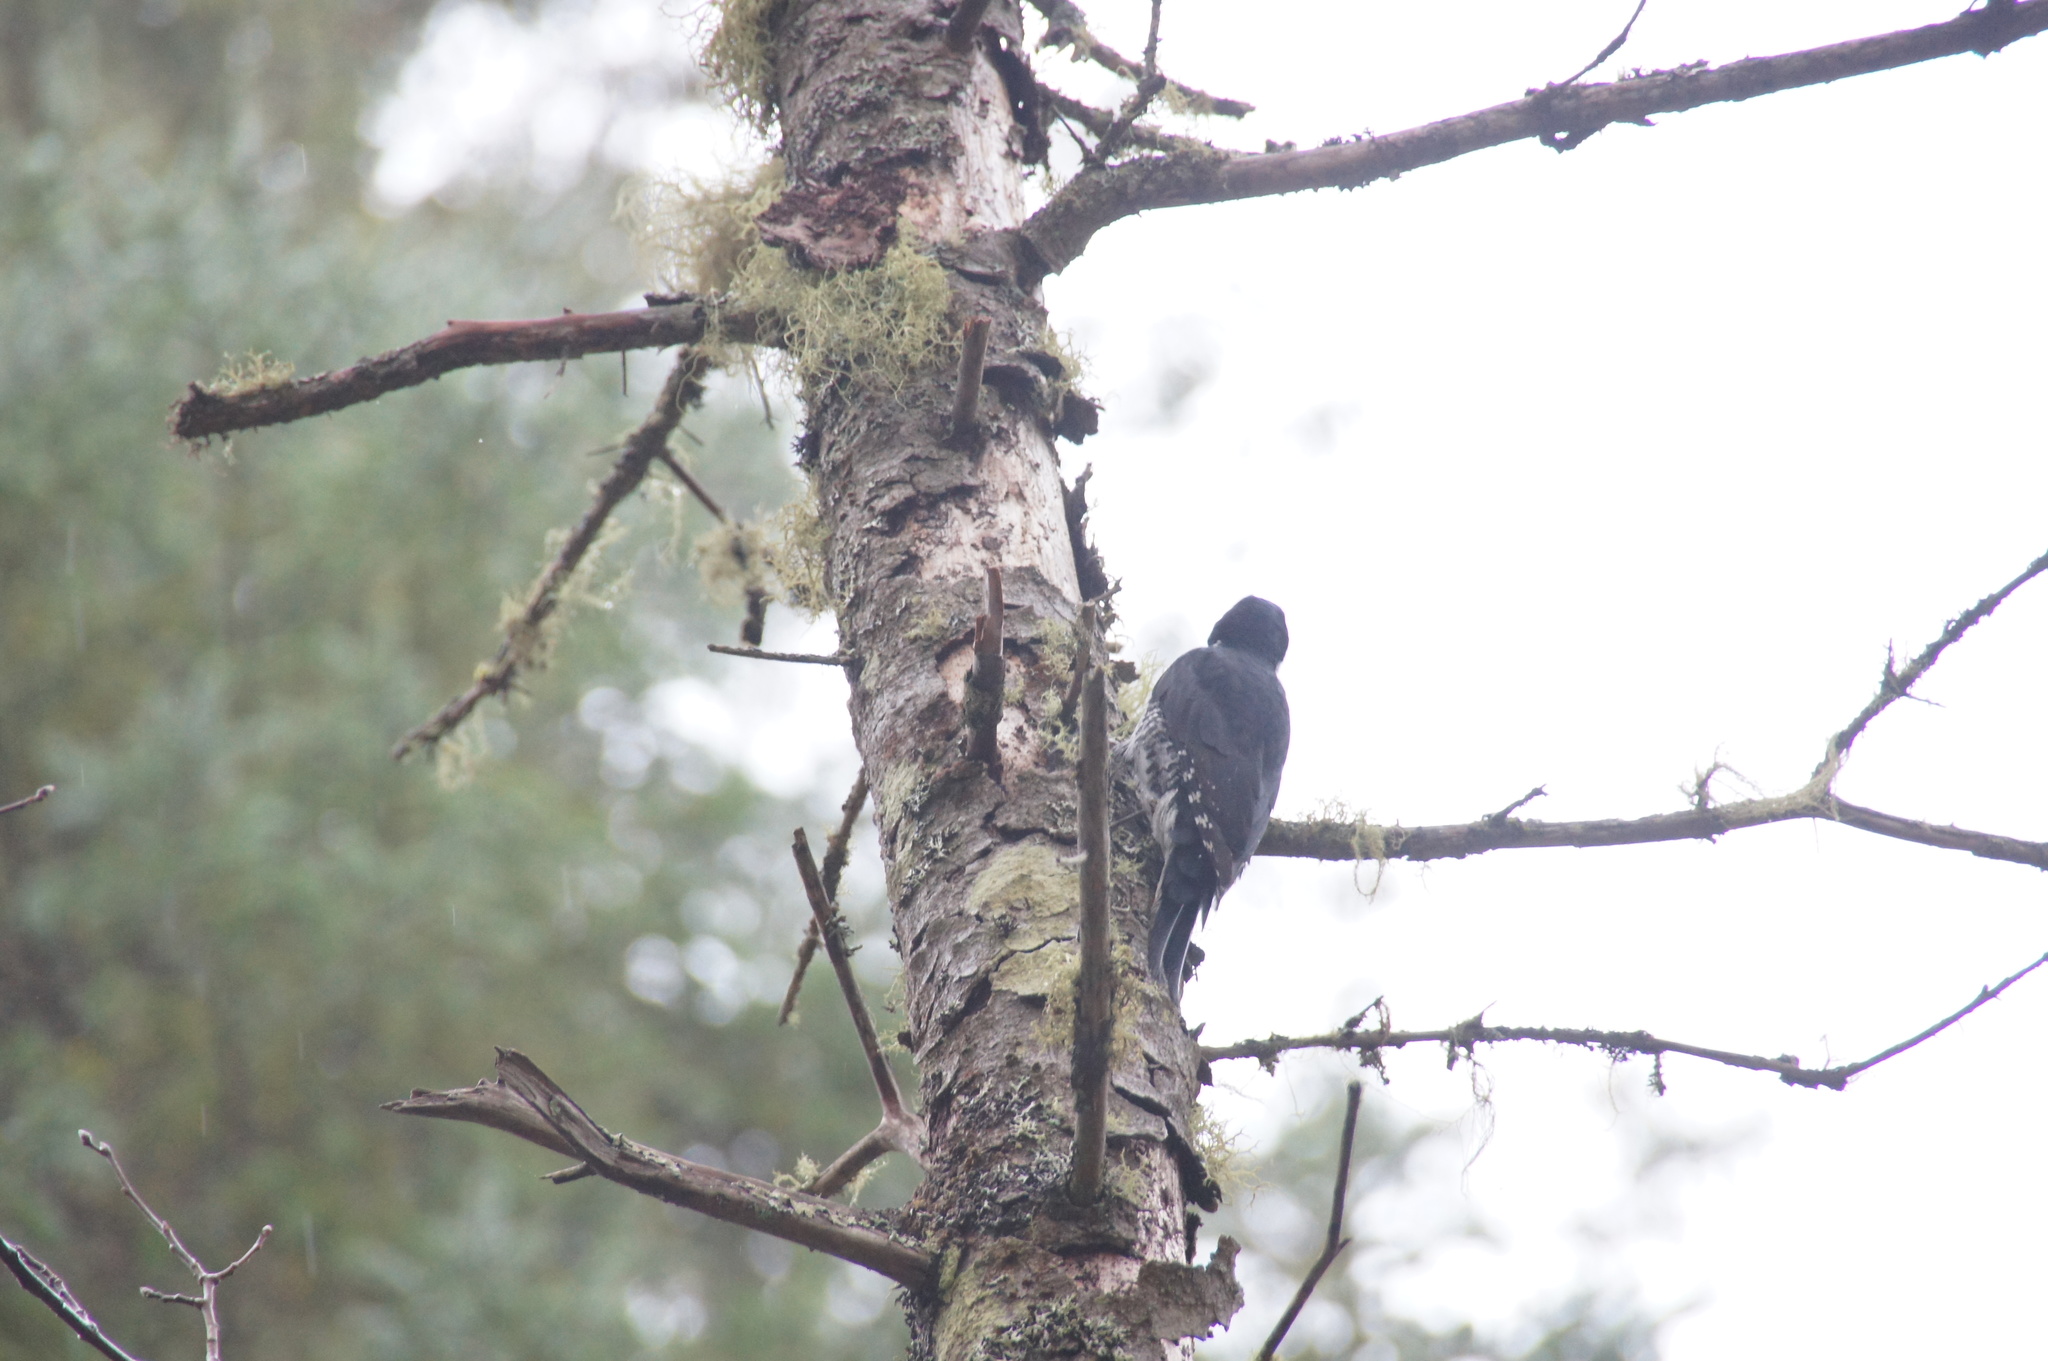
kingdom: Animalia
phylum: Chordata
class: Aves
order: Piciformes
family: Picidae
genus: Picoides
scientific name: Picoides arcticus
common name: Black-backed woodpecker
